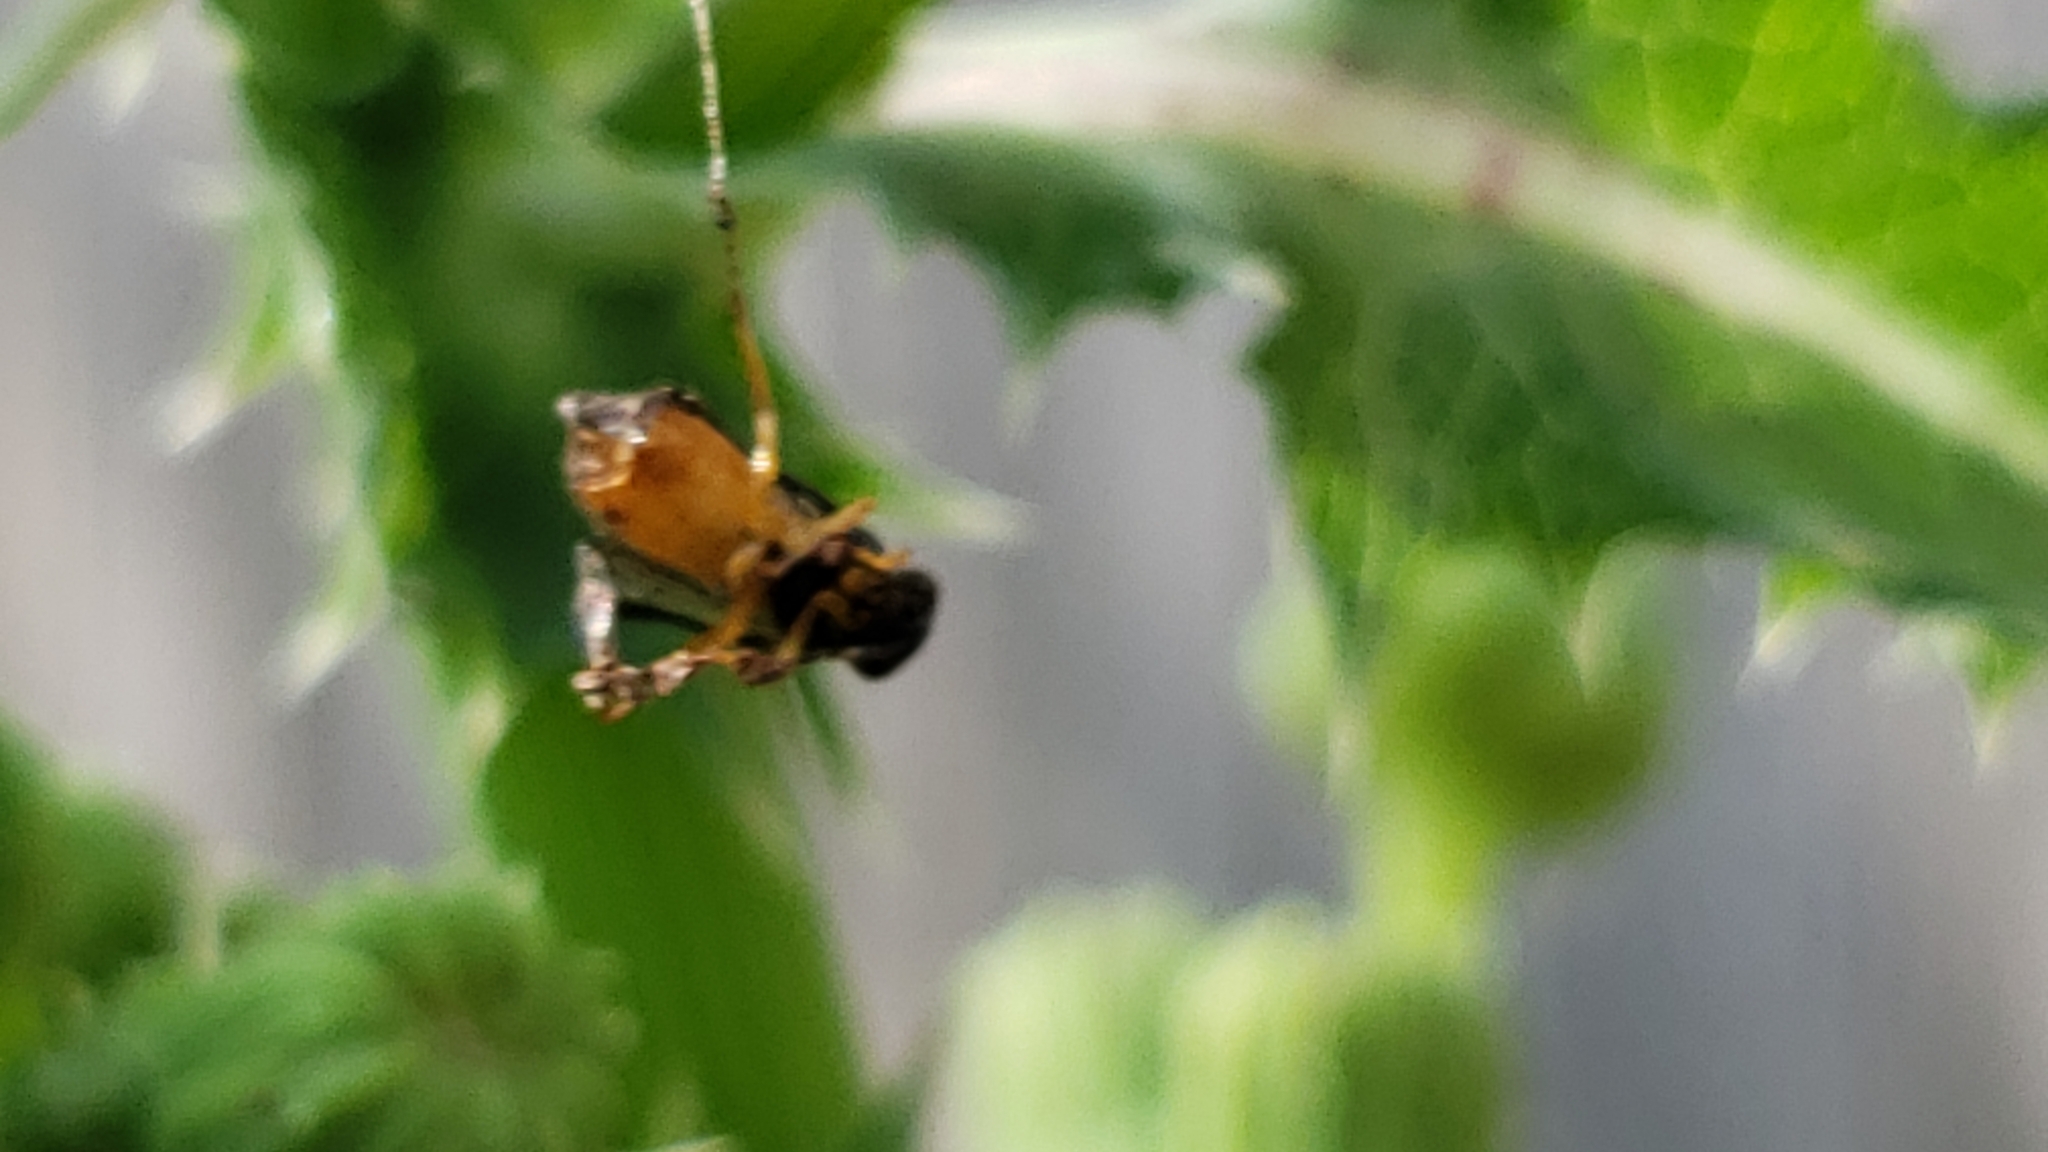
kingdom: Animalia
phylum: Arthropoda
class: Insecta
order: Hymenoptera
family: Tenthredinidae
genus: Athalia
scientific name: Athalia rosae
